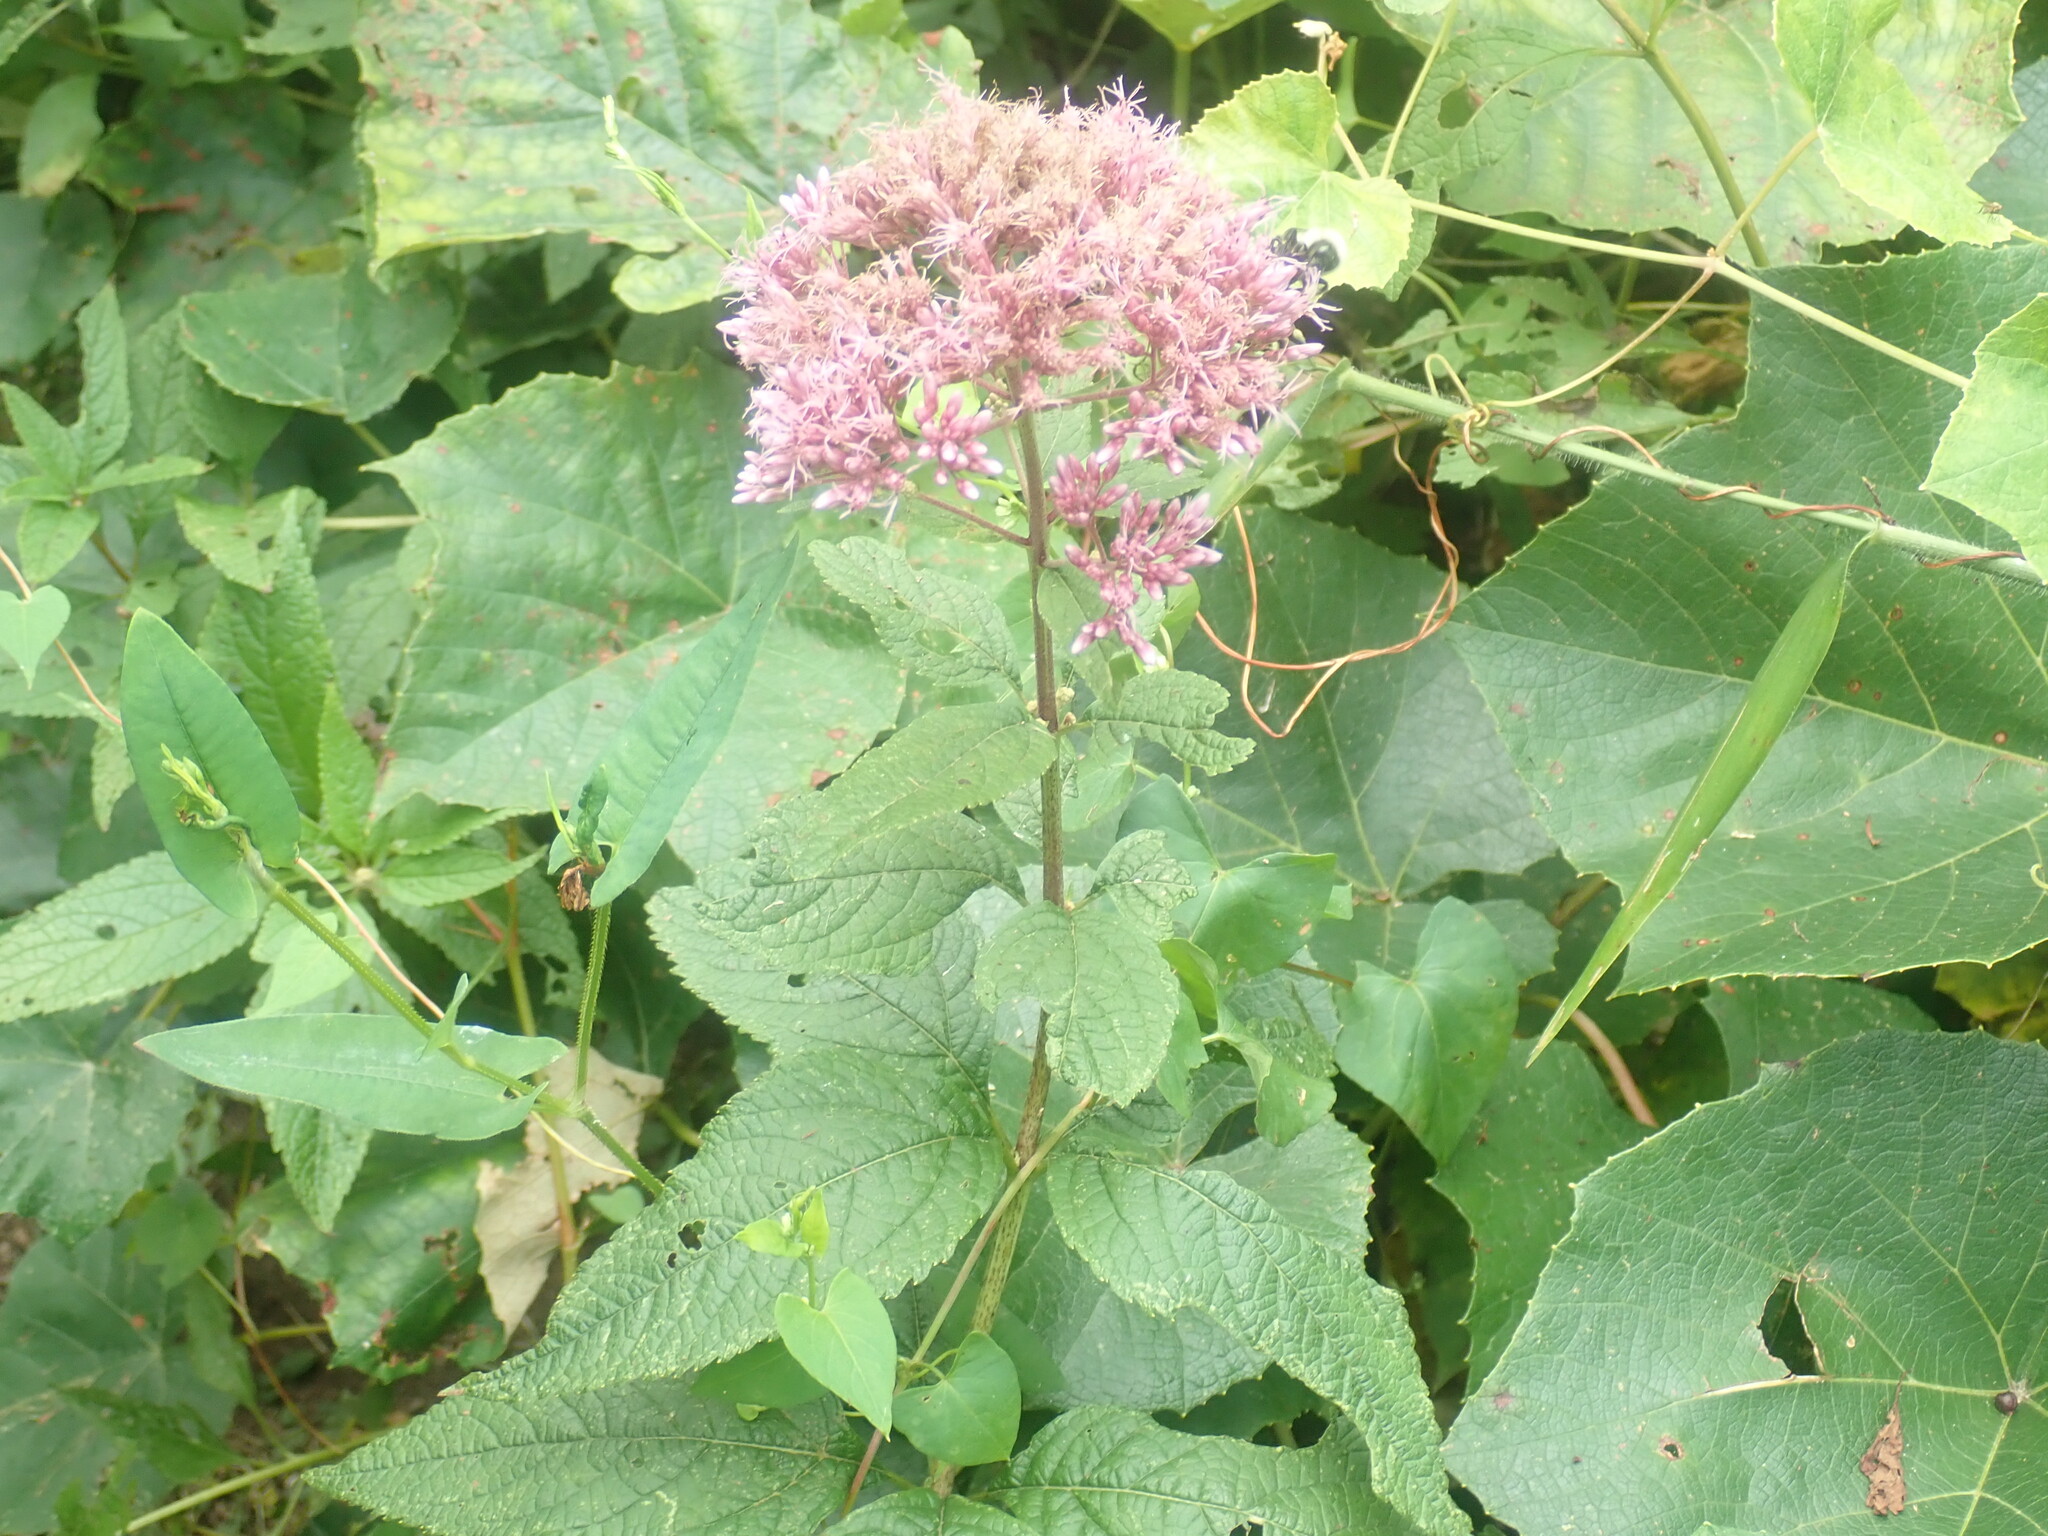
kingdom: Plantae
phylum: Tracheophyta
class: Magnoliopsida
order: Asterales
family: Asteraceae
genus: Eutrochium
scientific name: Eutrochium
